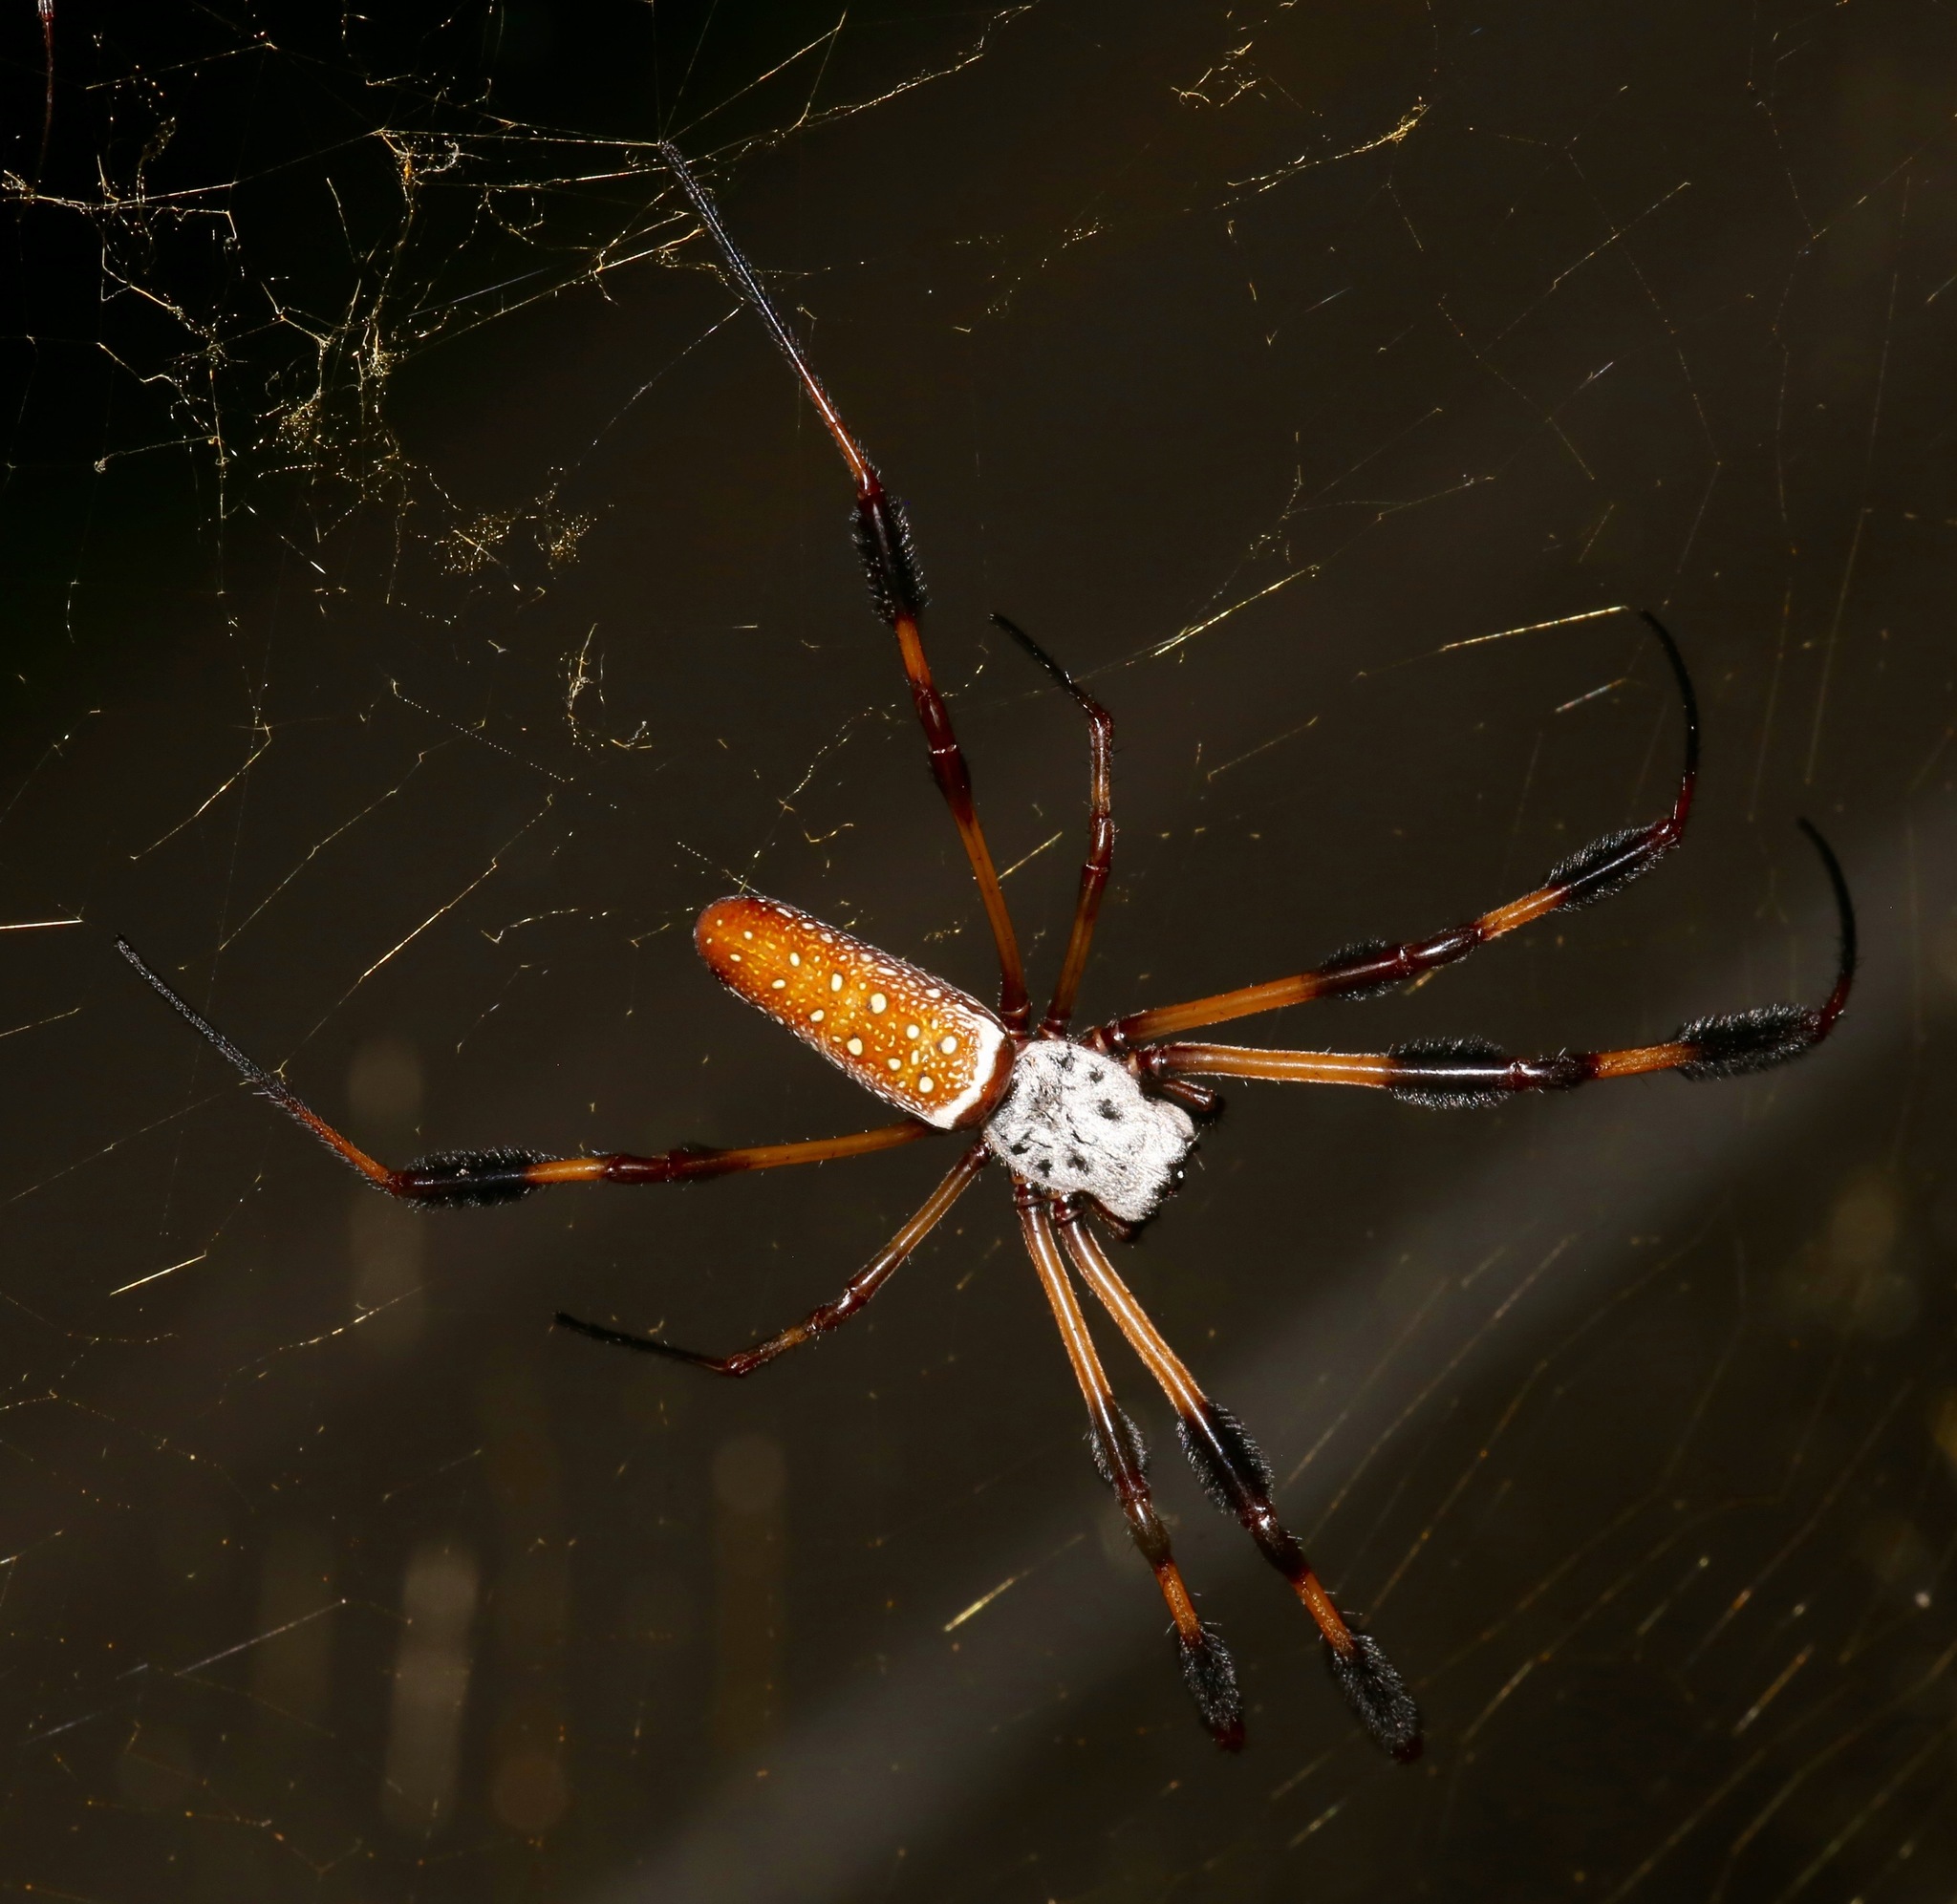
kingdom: Animalia
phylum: Arthropoda
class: Arachnida
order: Araneae
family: Araneidae
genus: Trichonephila
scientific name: Trichonephila clavipes
